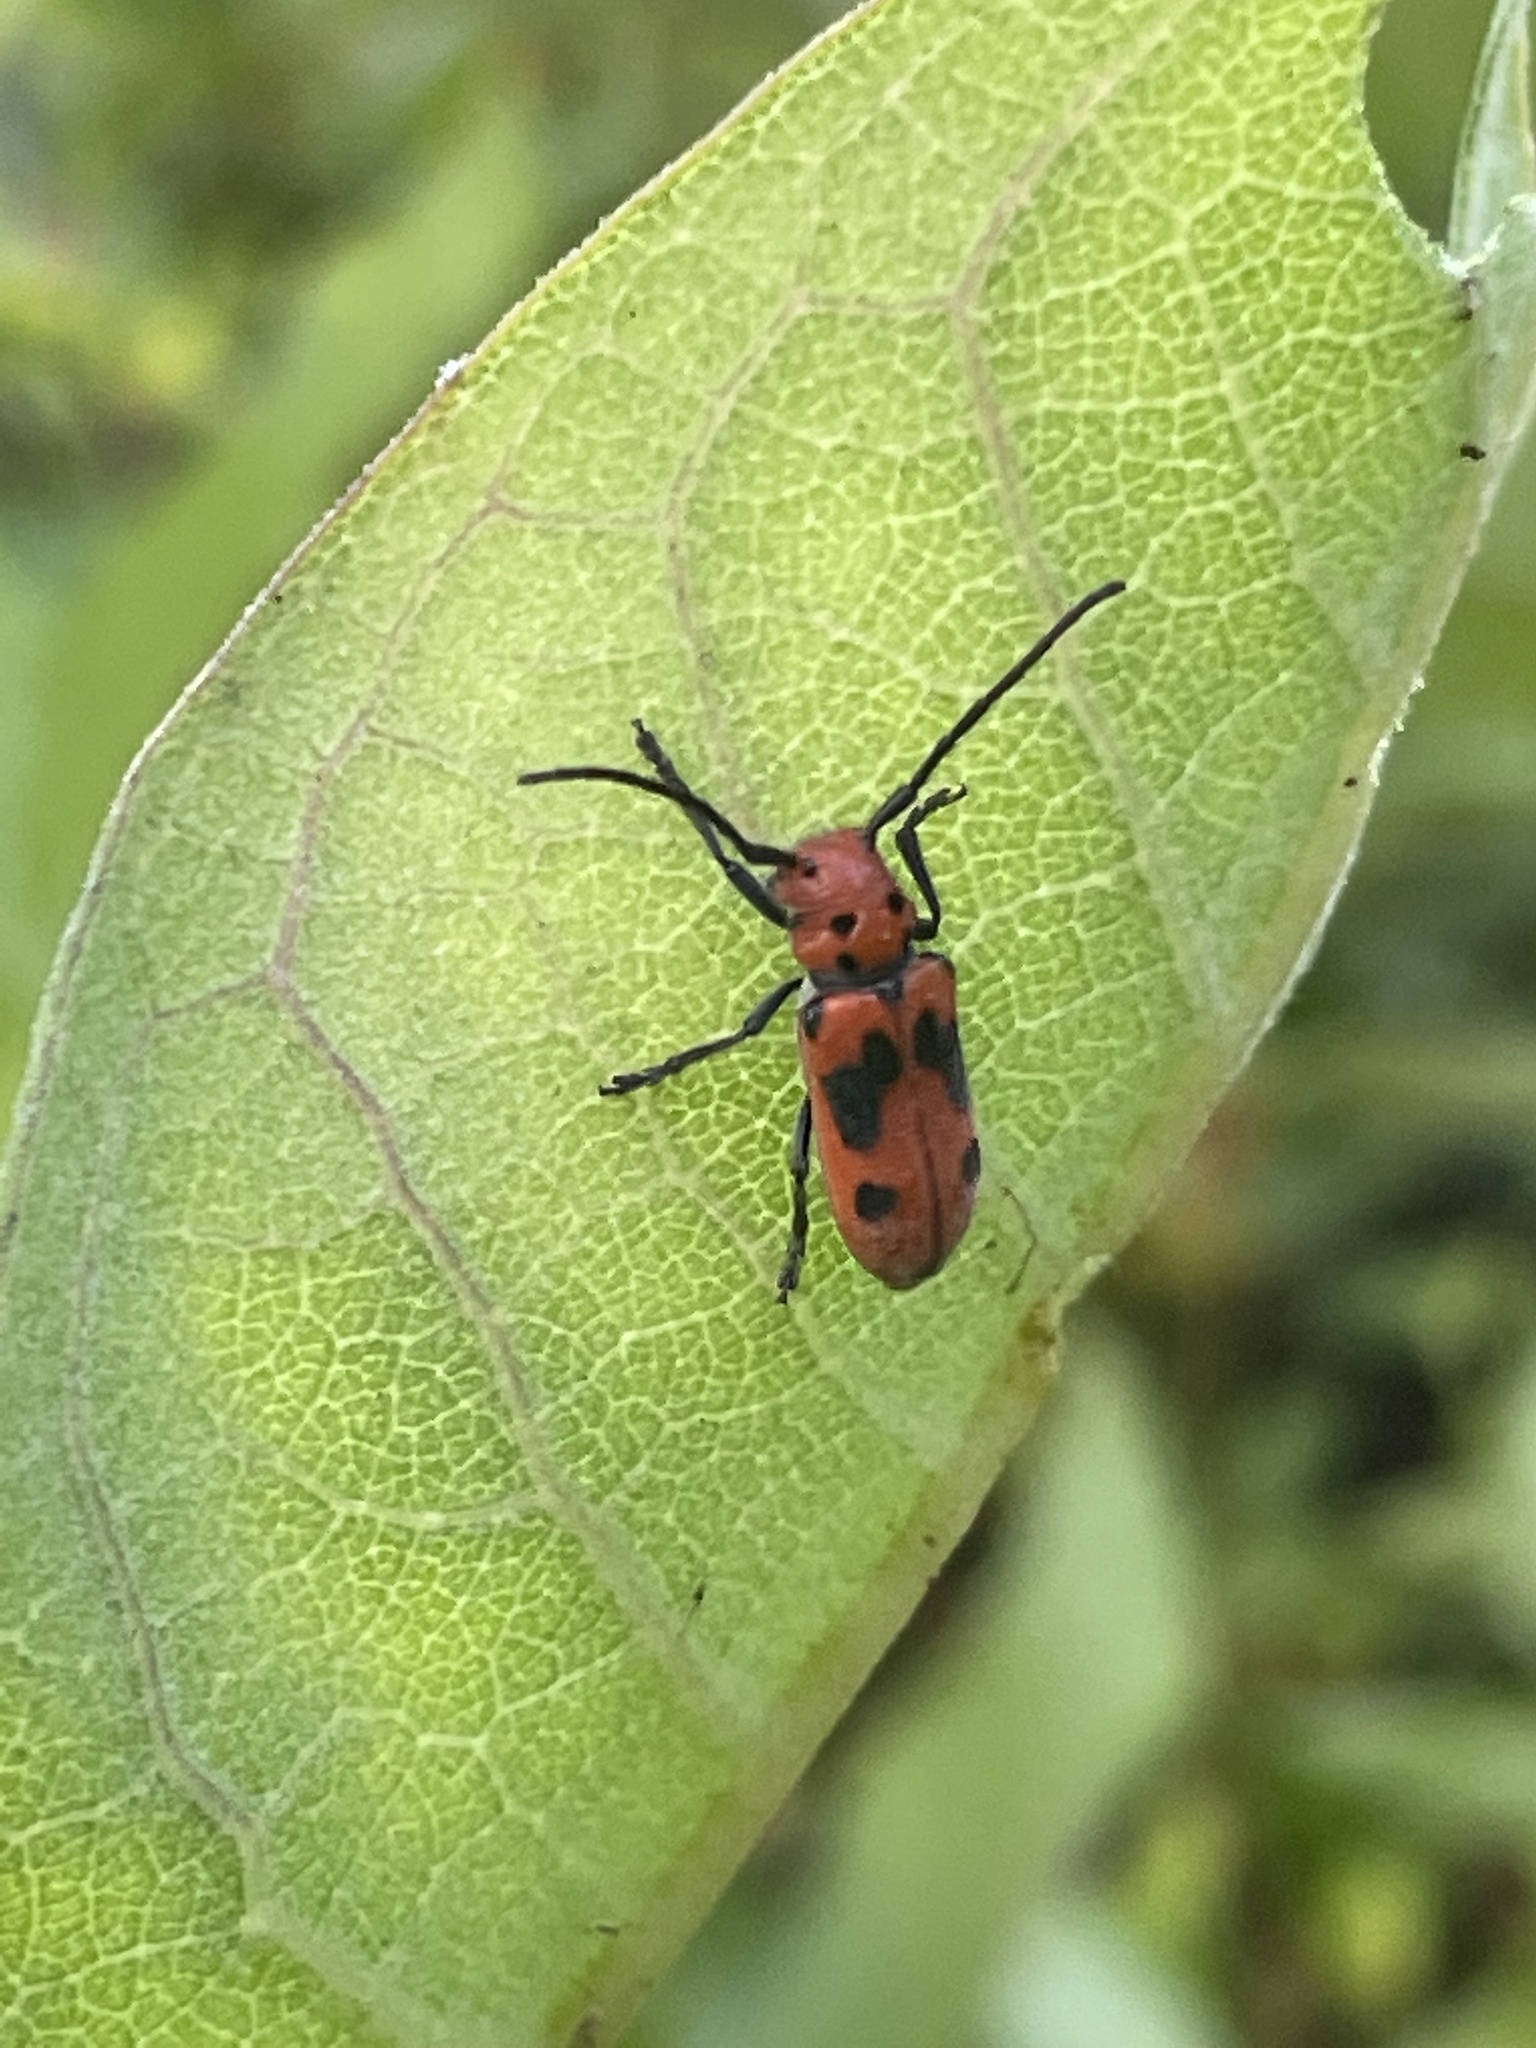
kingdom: Animalia
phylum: Arthropoda
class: Insecta
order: Coleoptera
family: Cerambycidae
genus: Tetraopes
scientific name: Tetraopes tetrophthalmus
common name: Red milkweed beetle
